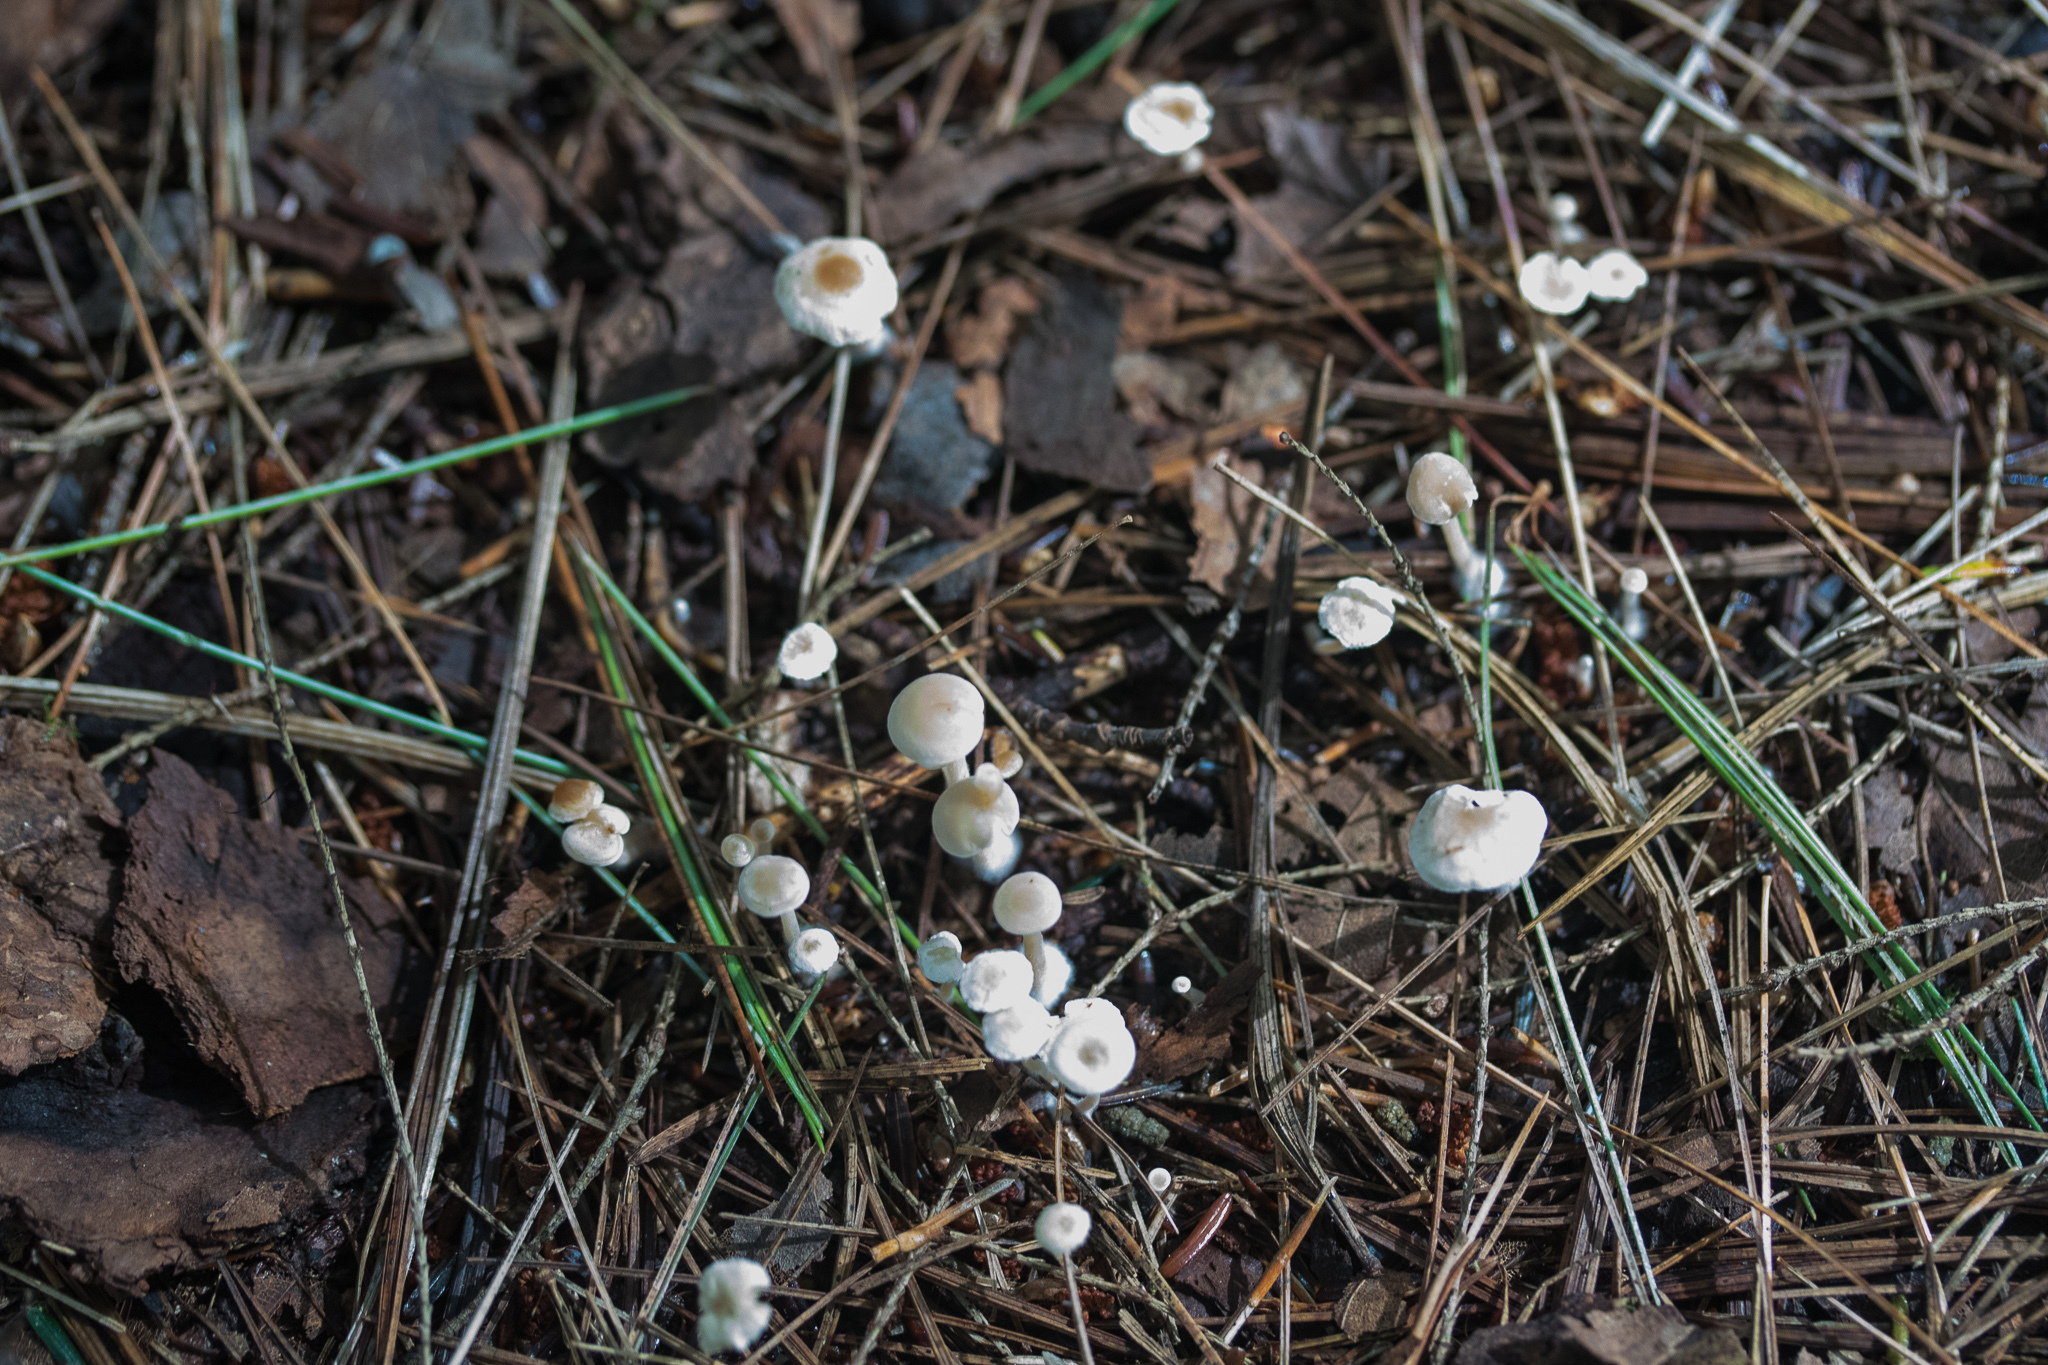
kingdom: Fungi
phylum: Basidiomycota
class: Agaricomycetes
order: Agaricales
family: Tricholomataceae
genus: Collybia
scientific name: Collybia tuberosa
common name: Lentil shanklet
